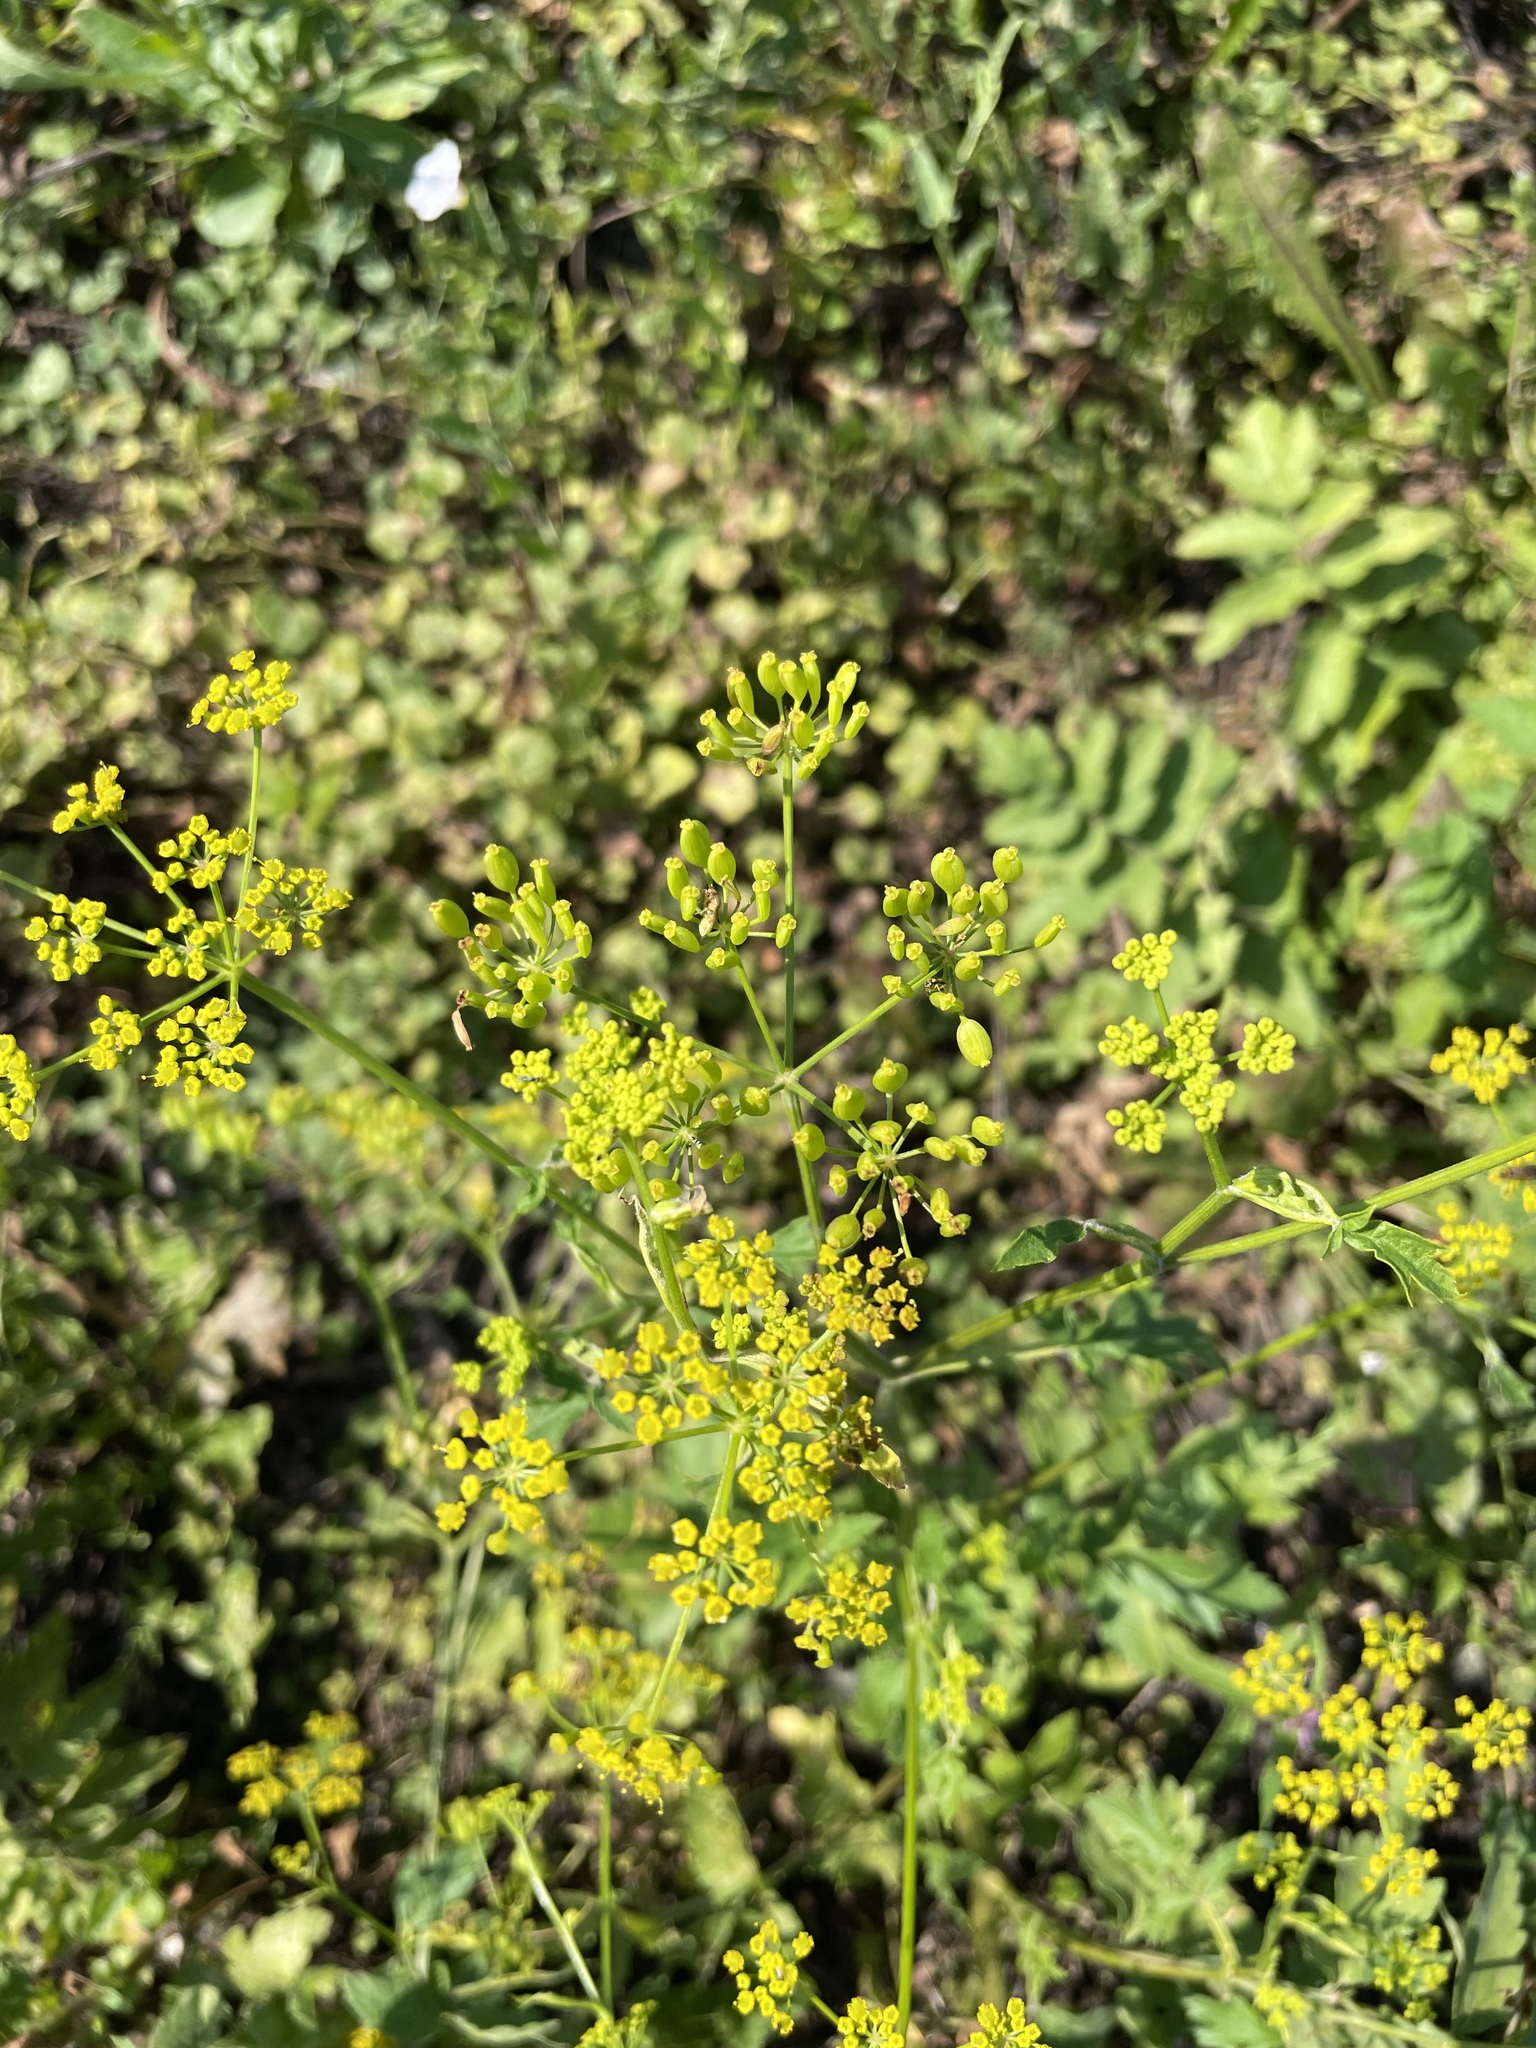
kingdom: Plantae
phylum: Tracheophyta
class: Magnoliopsida
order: Apiales
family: Apiaceae
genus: Pastinaca
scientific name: Pastinaca sativa
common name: Wild parsnip
